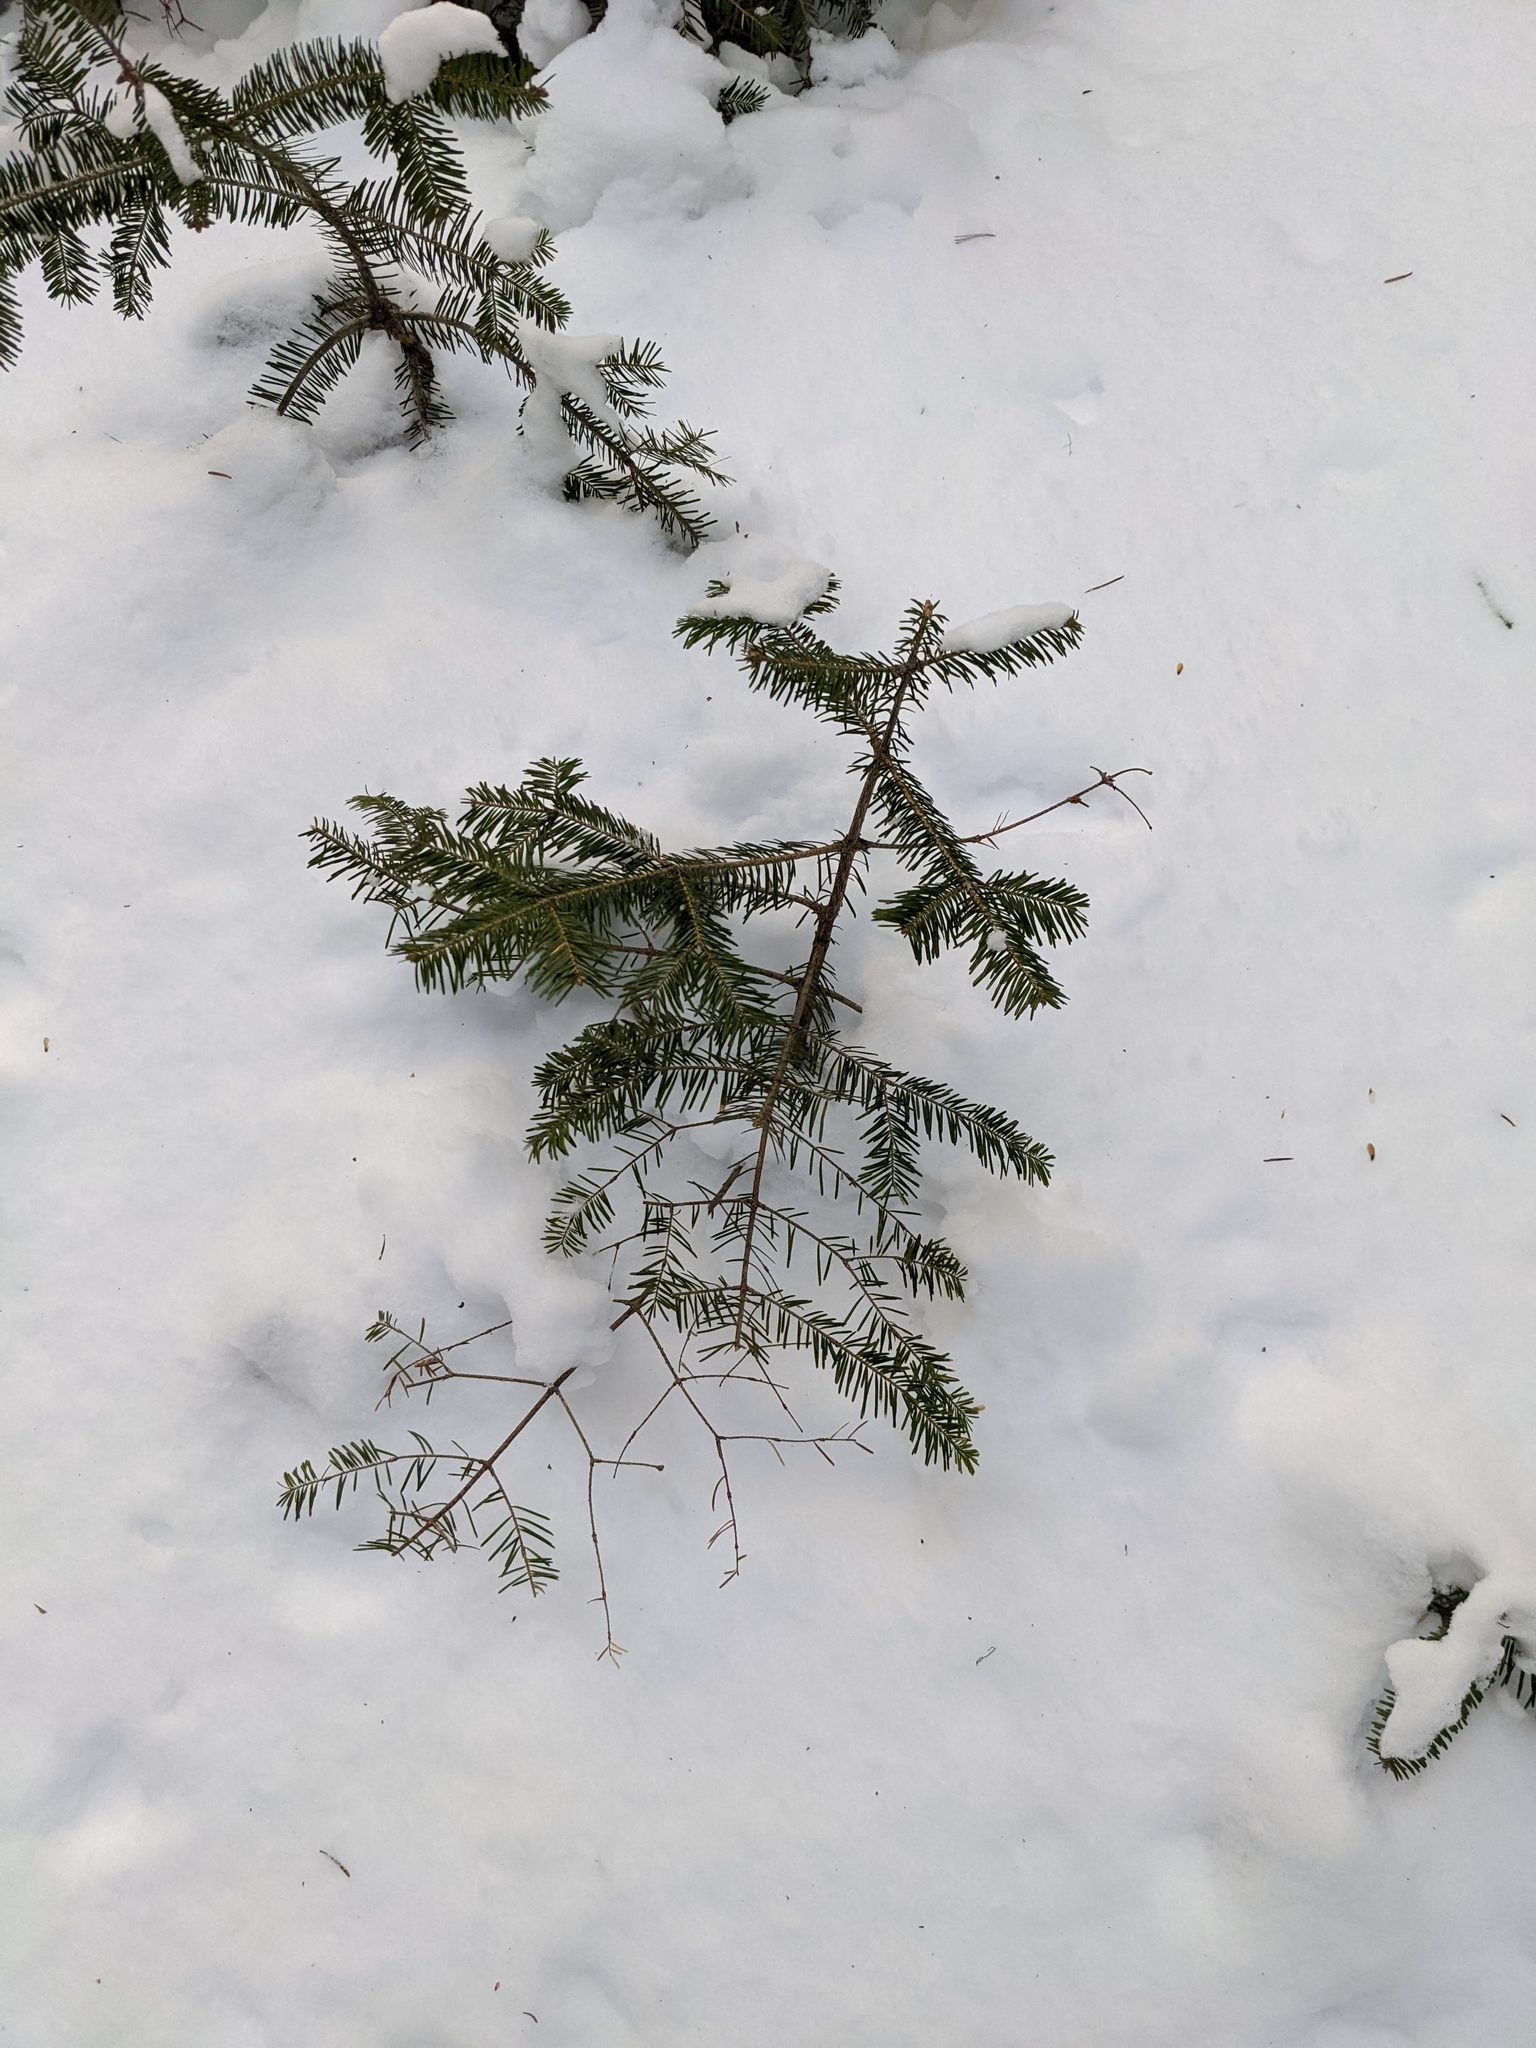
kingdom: Plantae
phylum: Tracheophyta
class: Pinopsida
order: Pinales
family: Pinaceae
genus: Abies
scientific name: Abies balsamea
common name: Balsam fir
